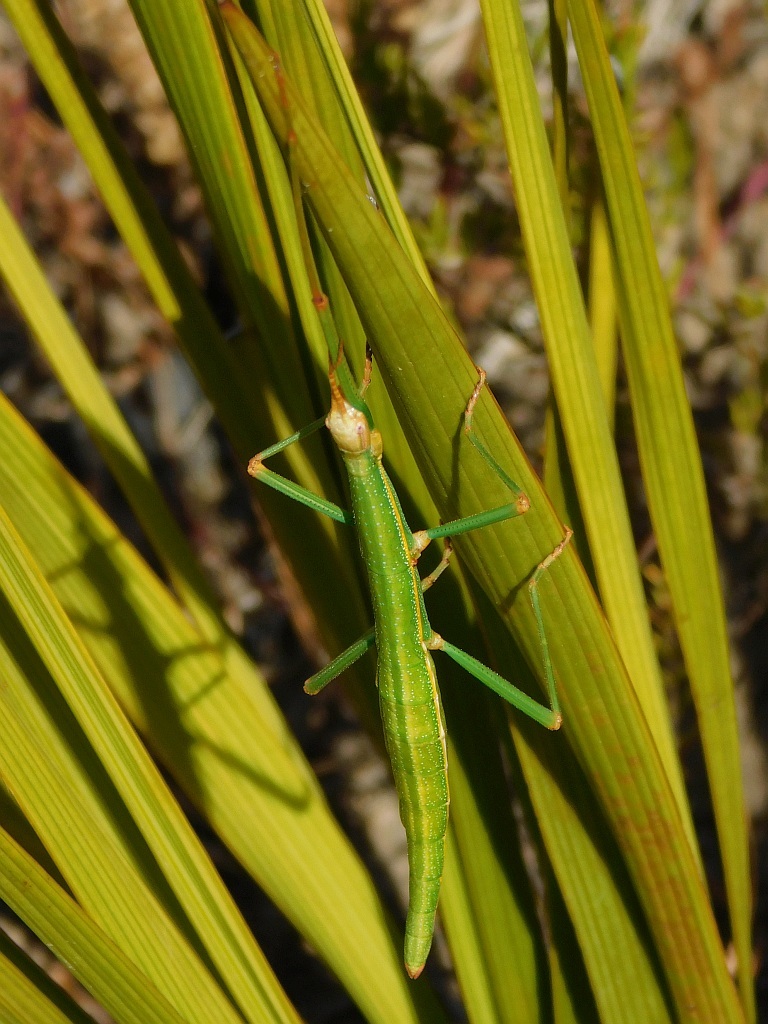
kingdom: Animalia
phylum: Arthropoda
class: Insecta
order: Phasmida
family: Bacillidae
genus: Macynia
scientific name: Macynia labiata
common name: Thunberg's stick insect
